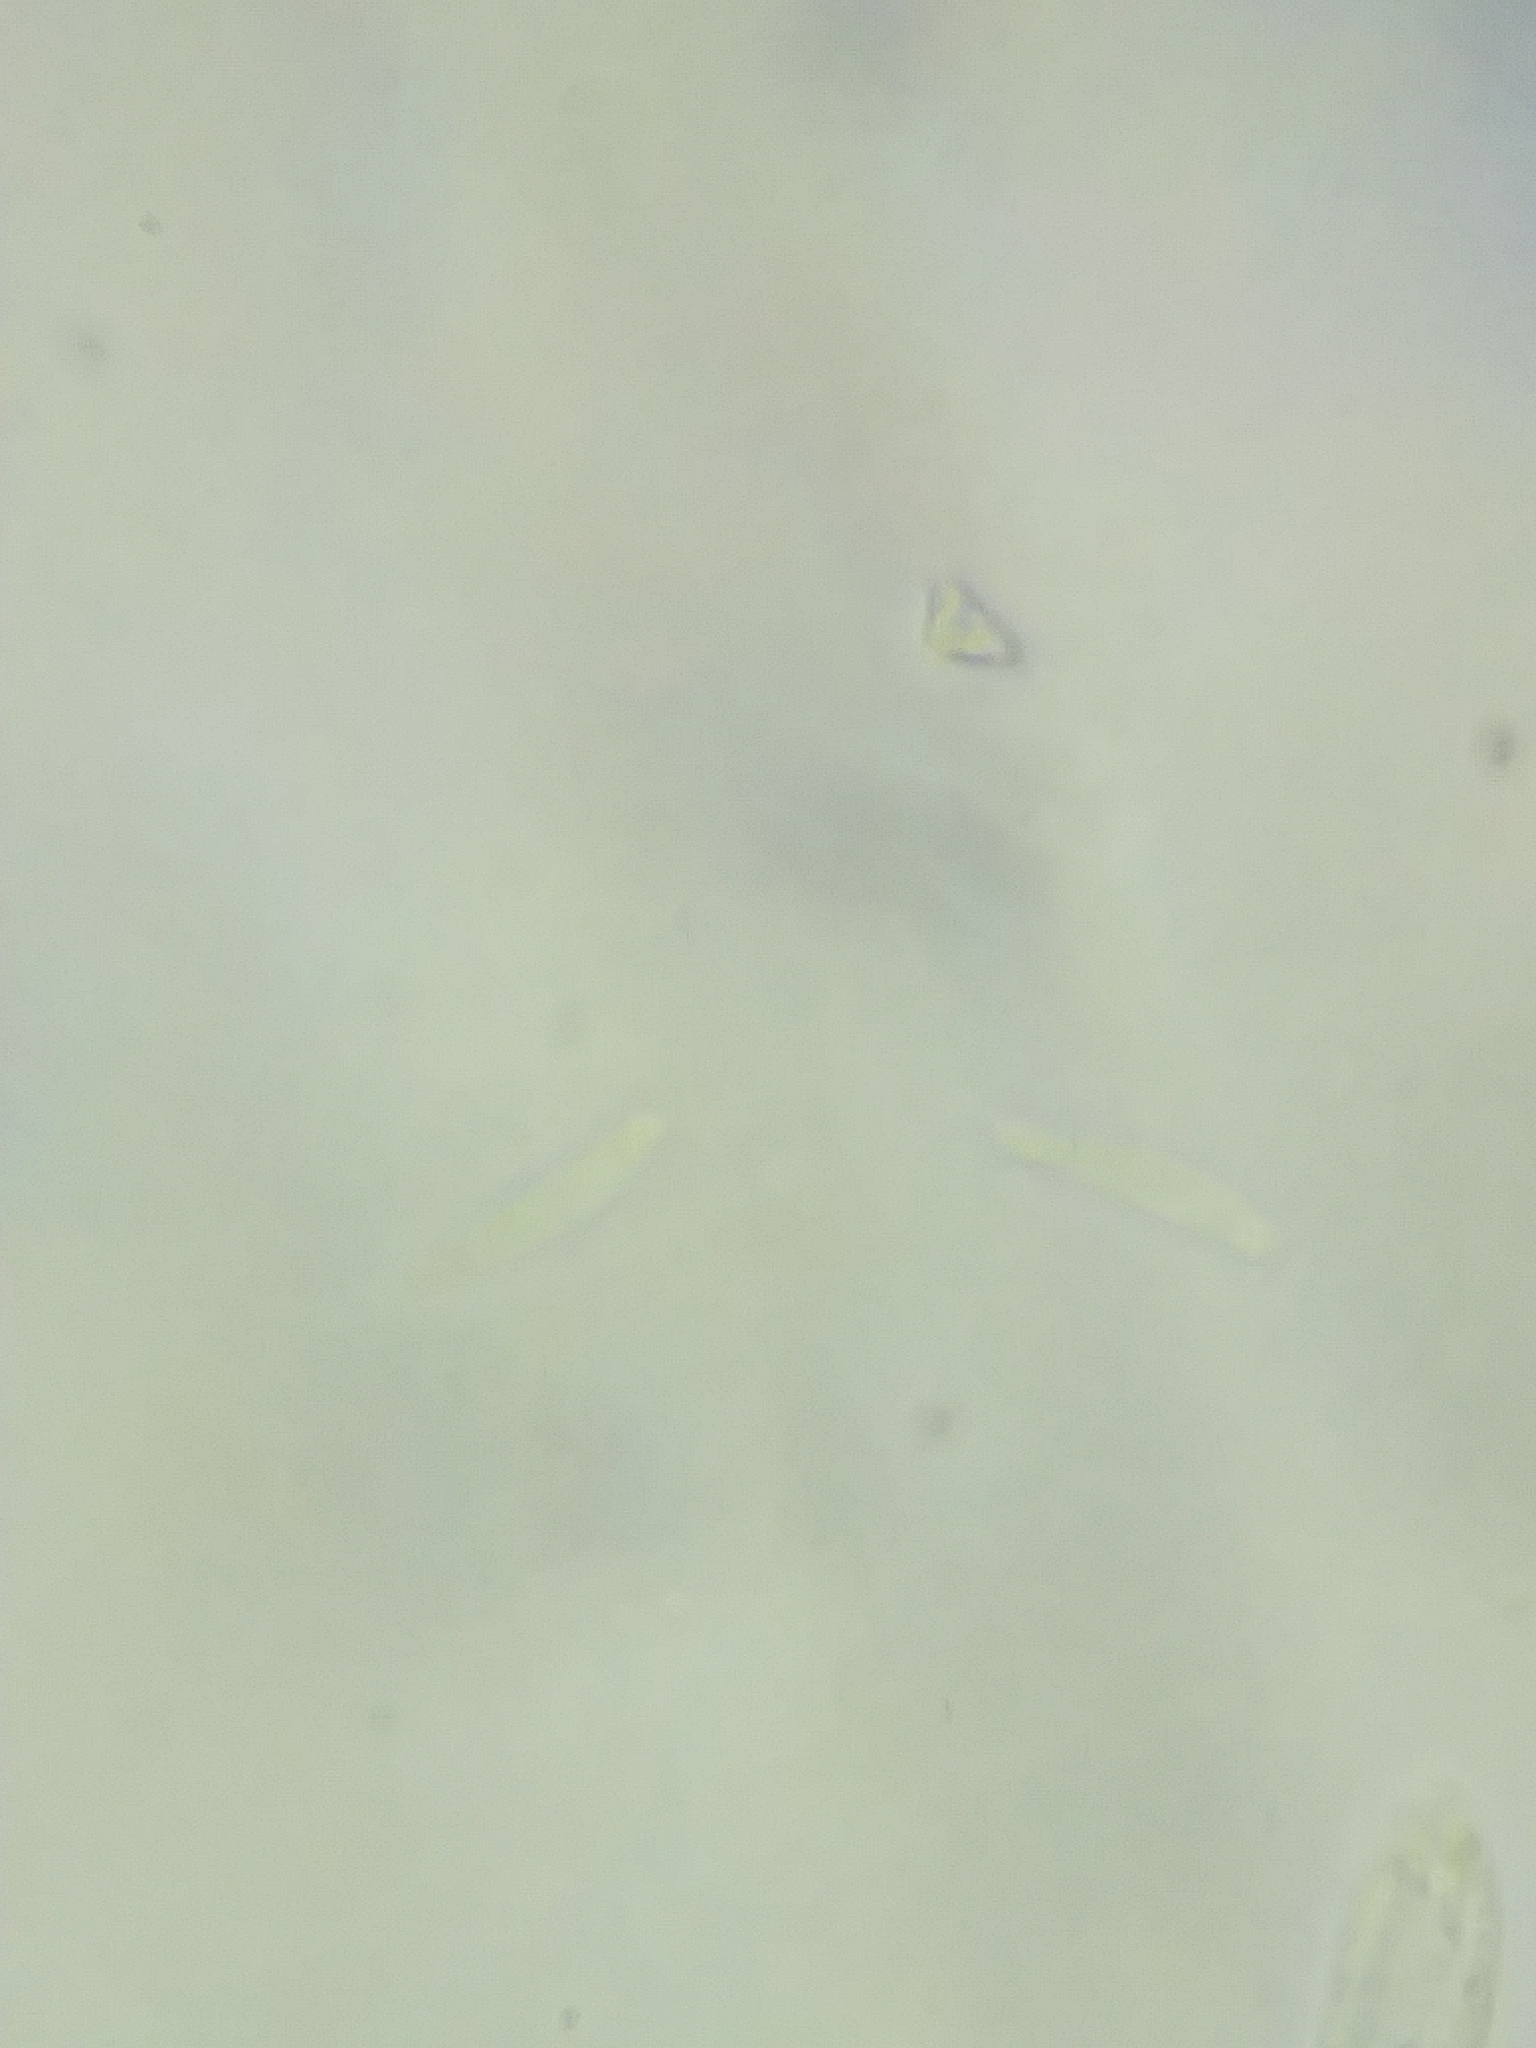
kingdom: Fungi
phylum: Ascomycota
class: Leotiomycetes
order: Helotiales
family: Pezizellaceae
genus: Calycina
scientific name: Calycina herbarum
